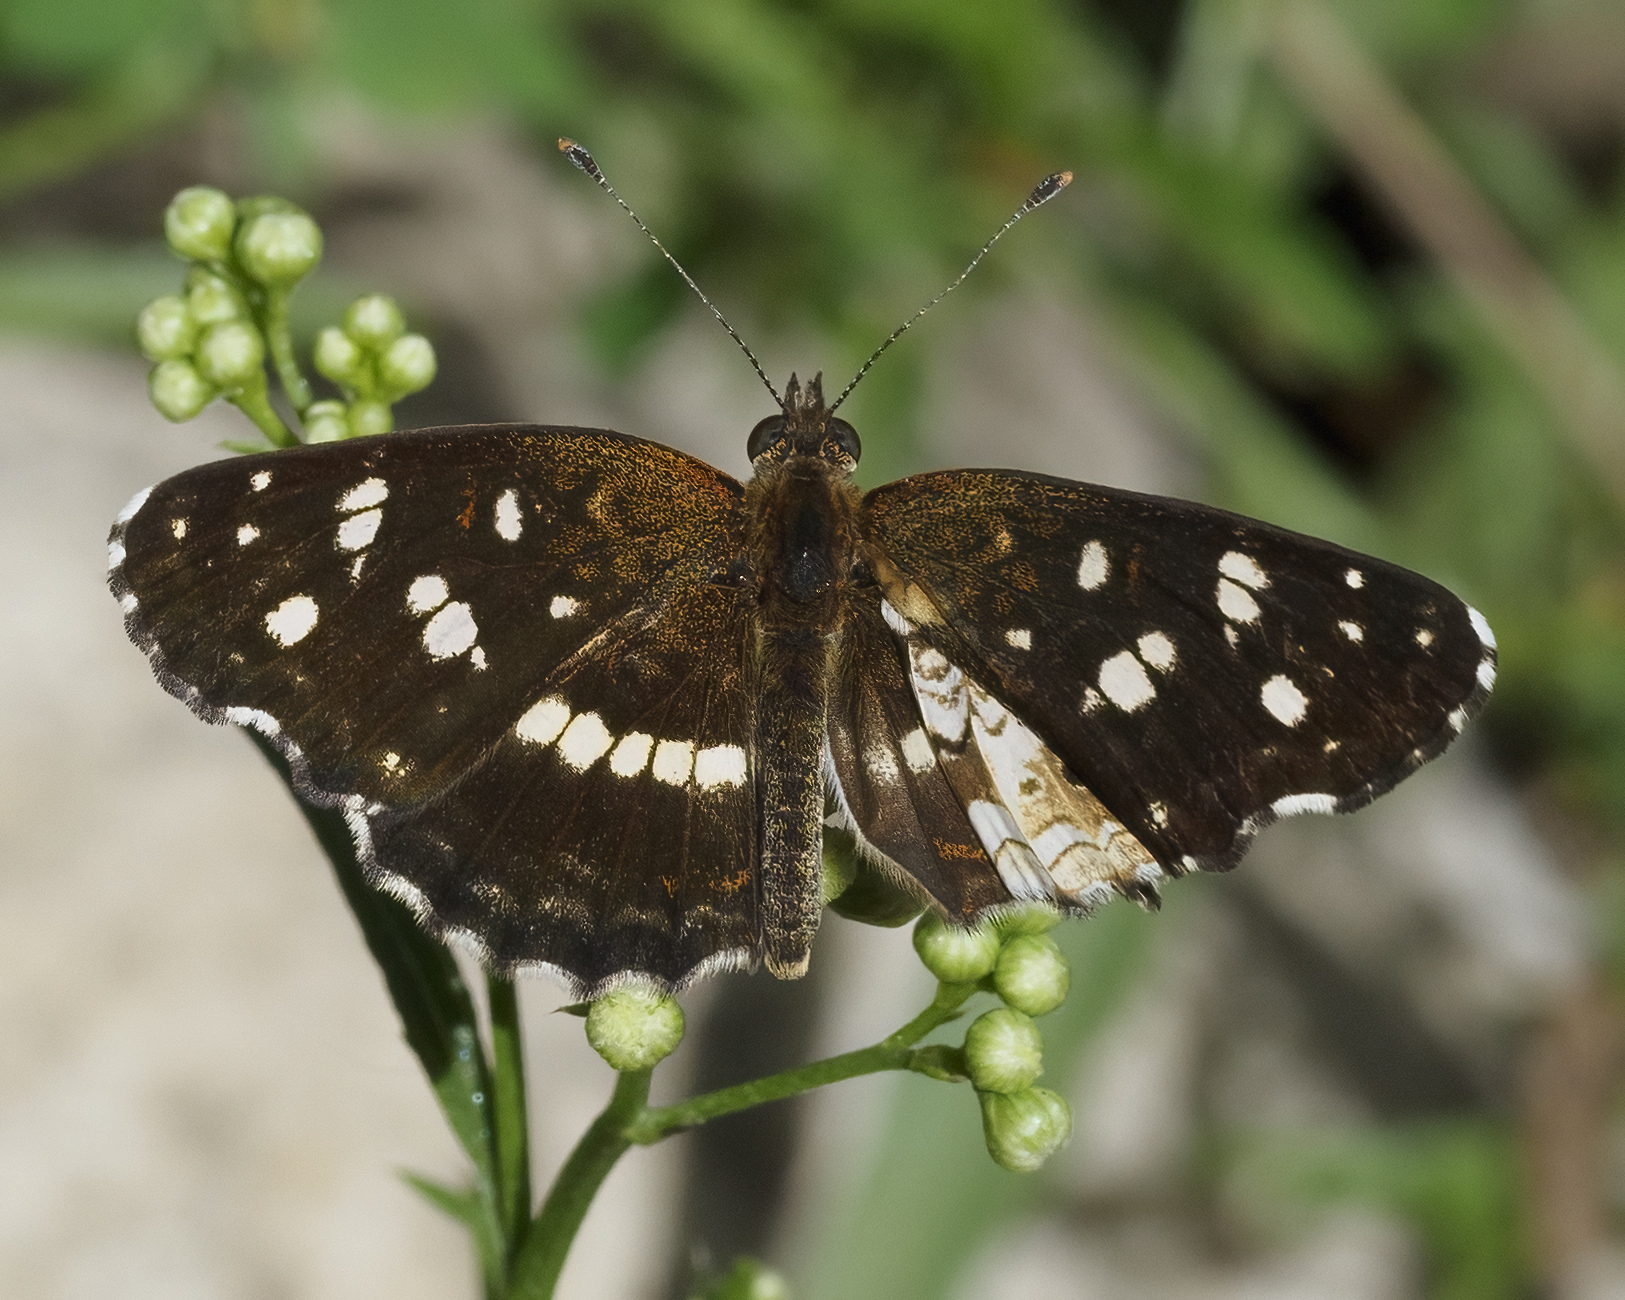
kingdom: Animalia
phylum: Arthropoda
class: Insecta
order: Lepidoptera
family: Nymphalidae
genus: Ortilia
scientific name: Ortilia ithra
